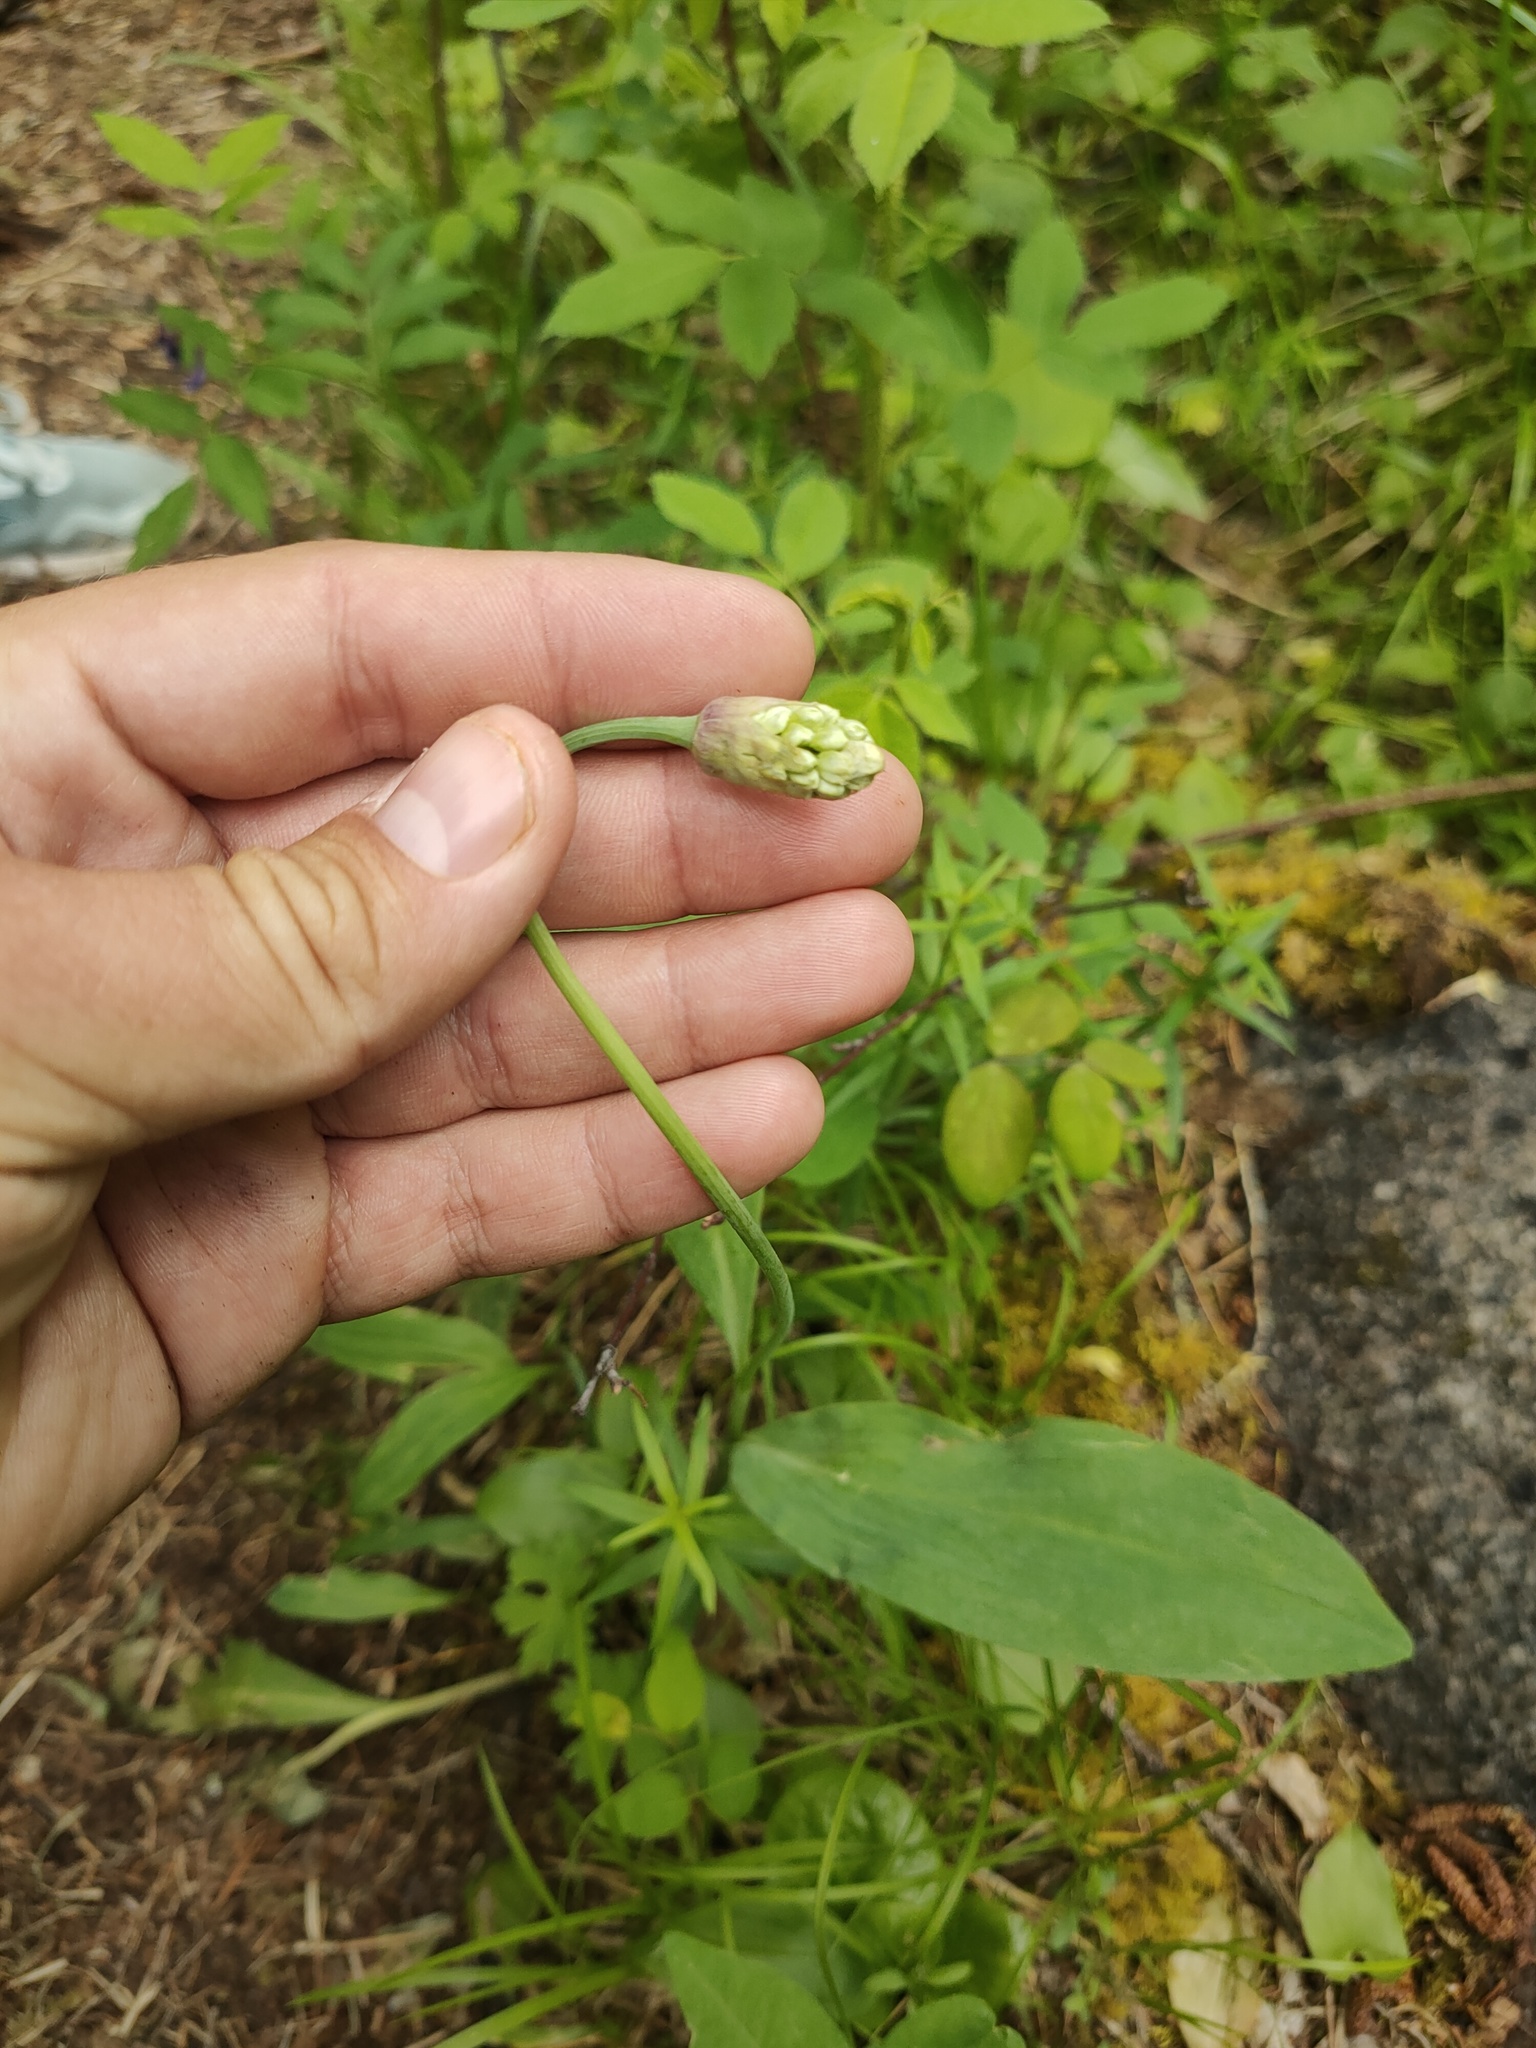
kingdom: Plantae
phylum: Tracheophyta
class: Liliopsida
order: Asparagales
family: Amaryllidaceae
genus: Allium
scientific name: Allium microdictyon
